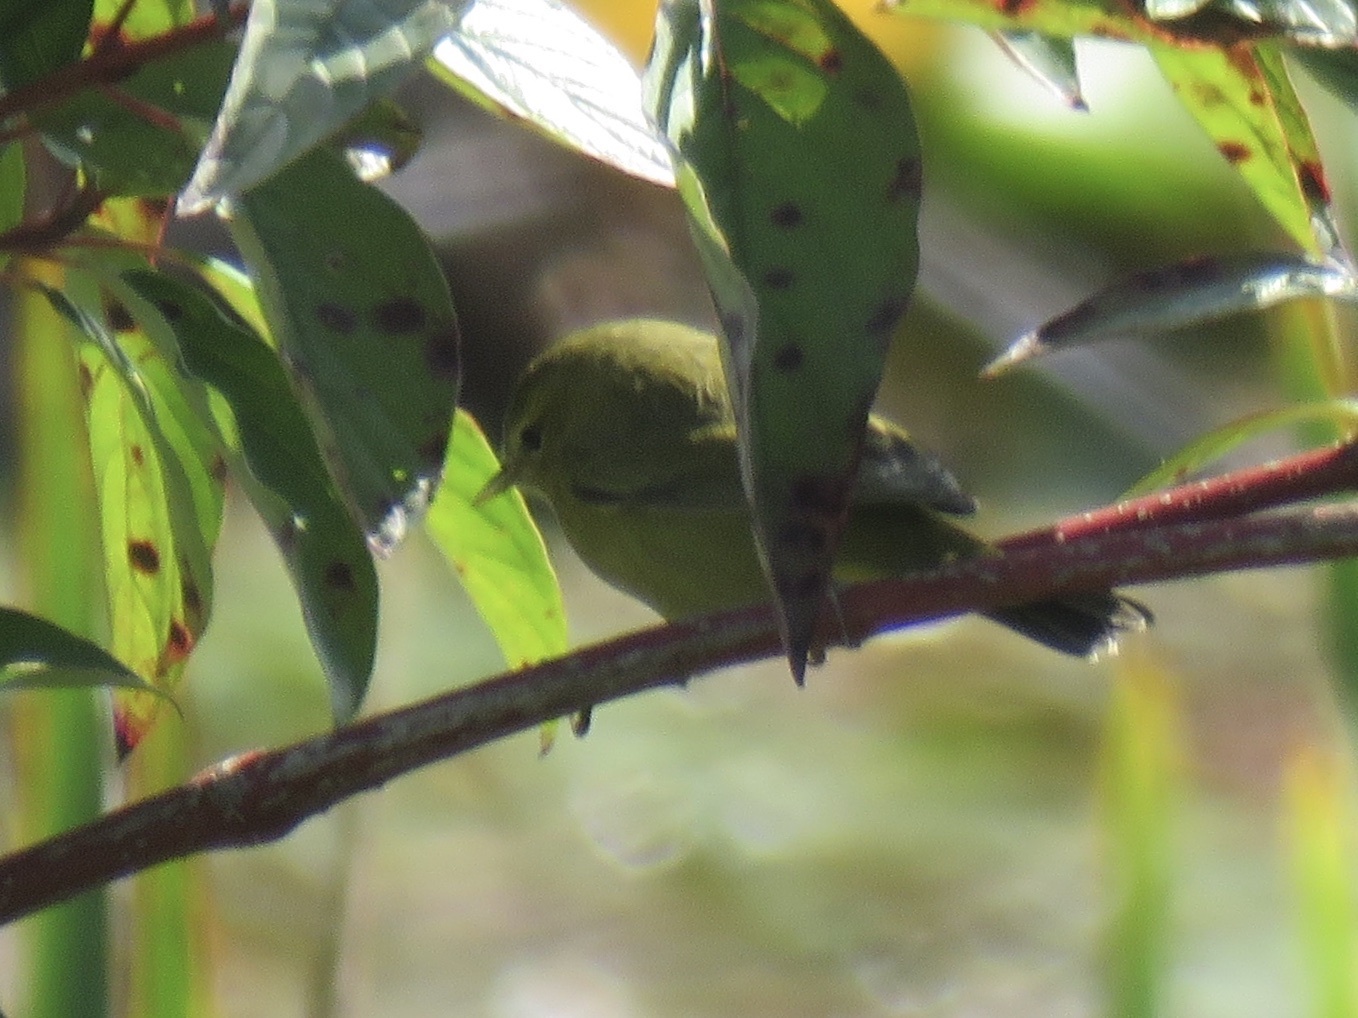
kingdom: Animalia
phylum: Chordata
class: Aves
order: Passeriformes
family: Parulidae
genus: Leiothlypis
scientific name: Leiothlypis celata
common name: Orange-crowned warbler
